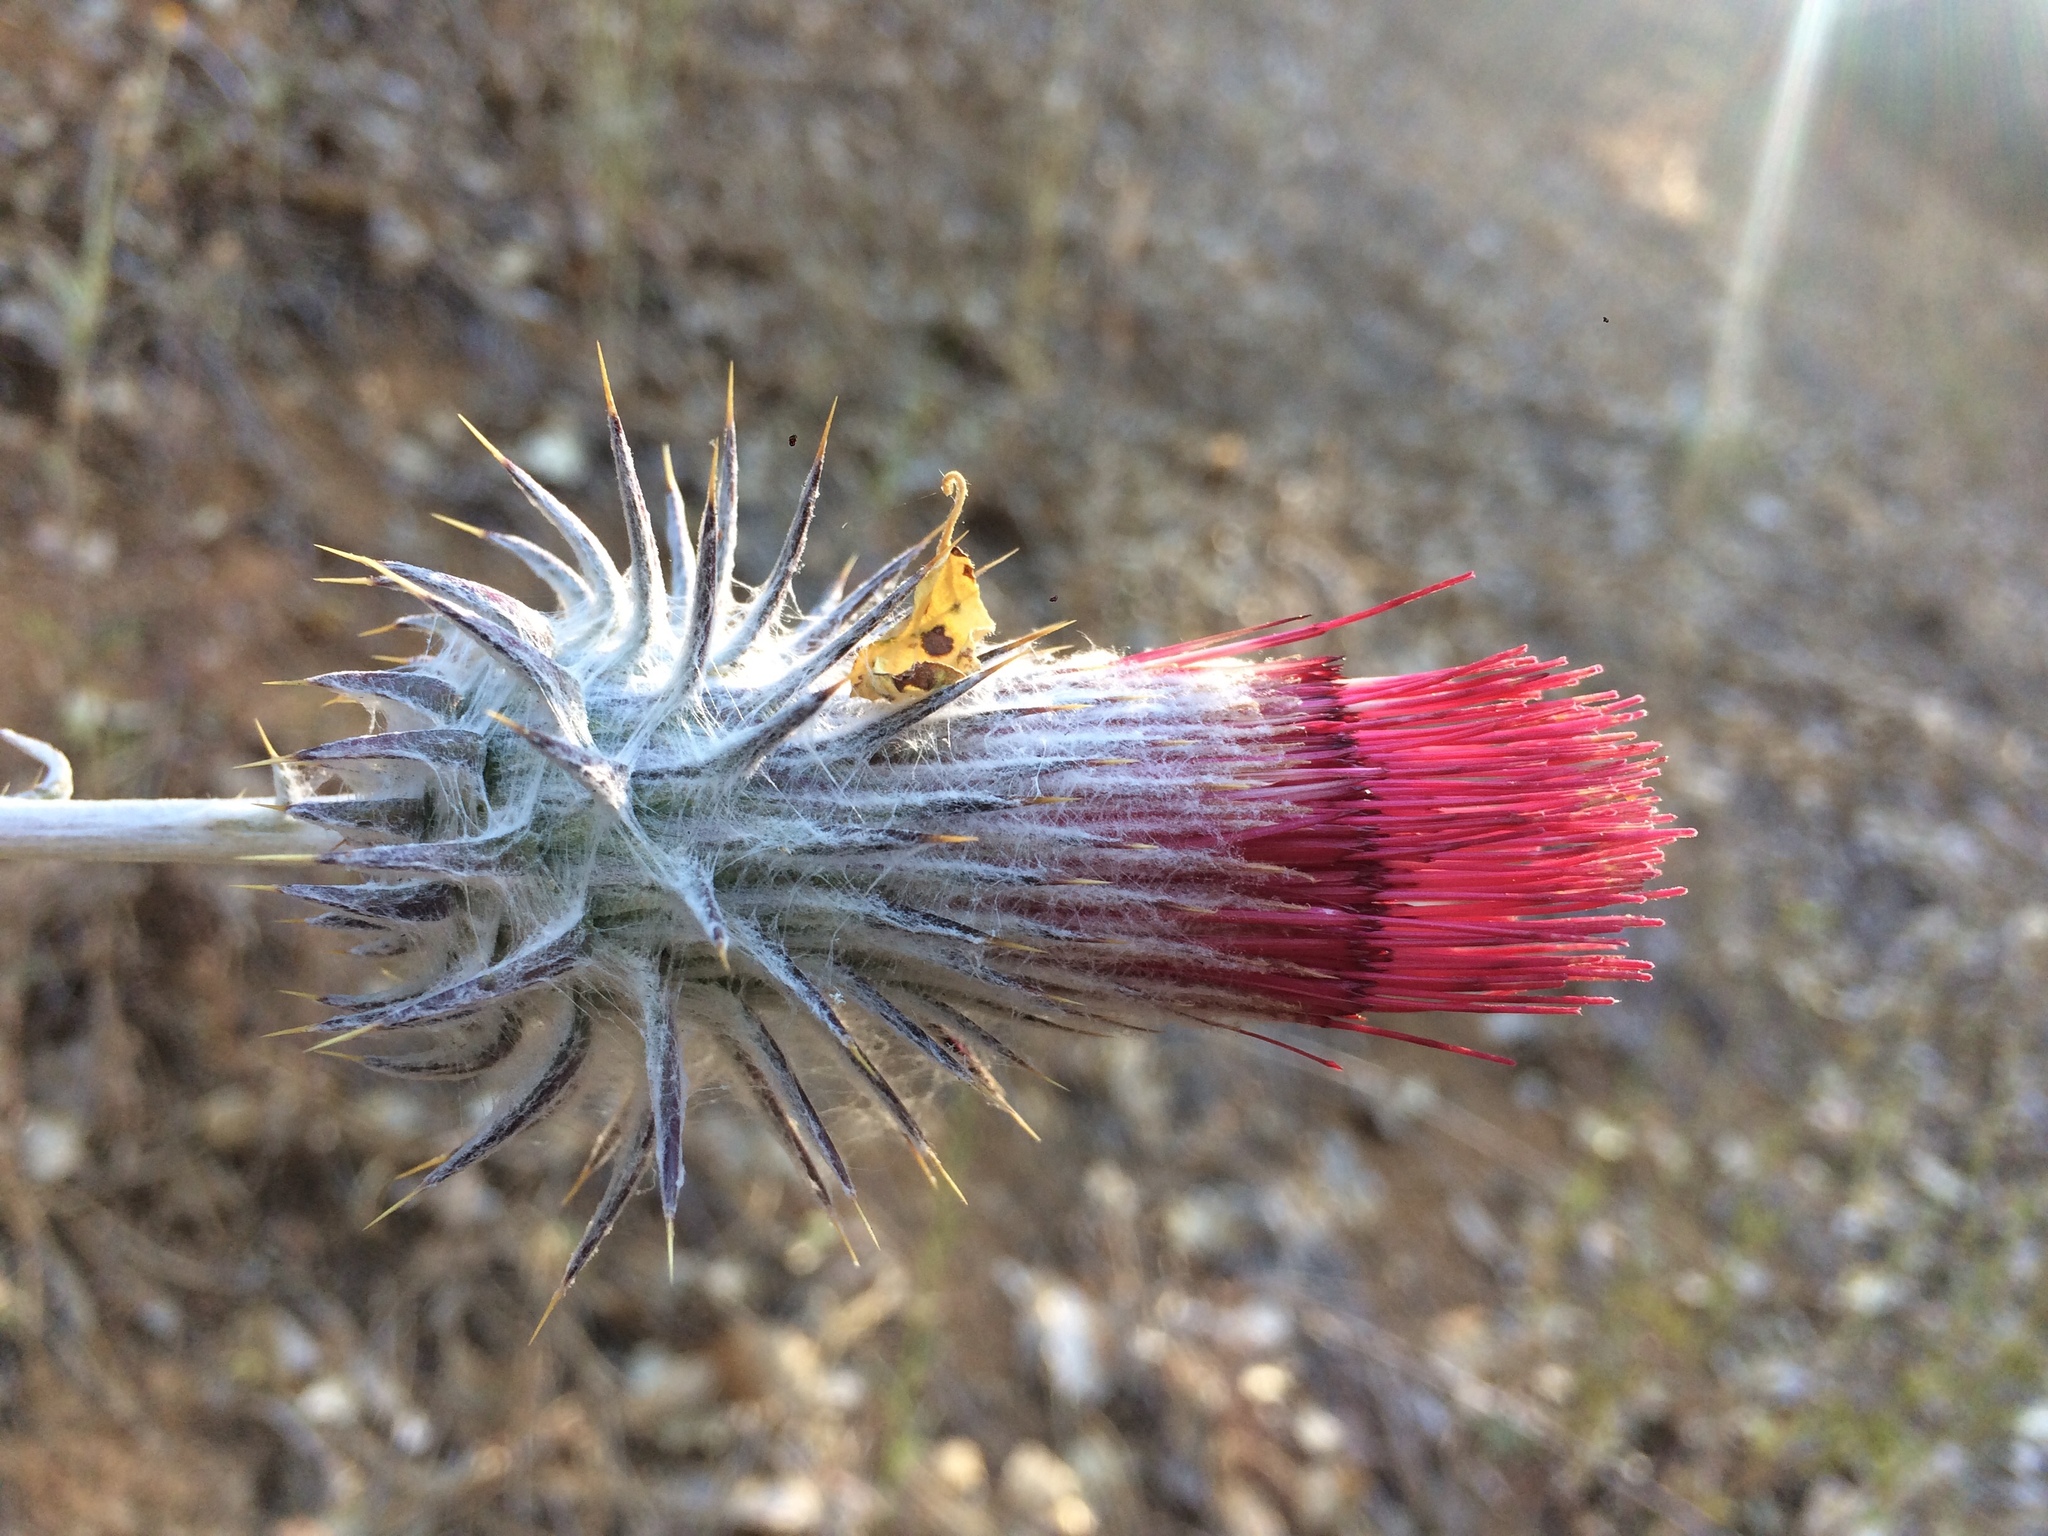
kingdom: Plantae
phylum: Tracheophyta
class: Magnoliopsida
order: Asterales
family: Asteraceae
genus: Cirsium
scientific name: Cirsium occidentale
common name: Western thistle
